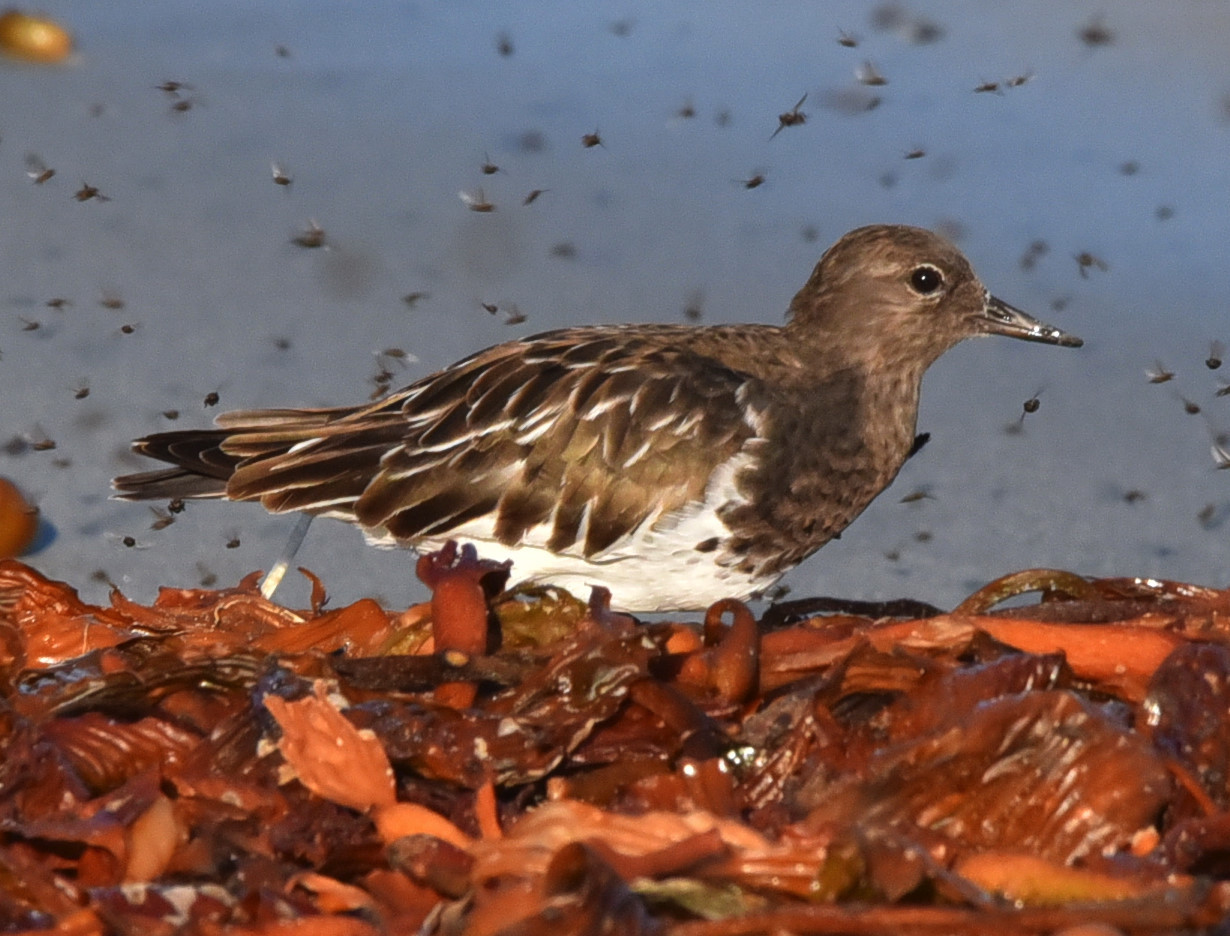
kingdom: Animalia
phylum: Chordata
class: Aves
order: Charadriiformes
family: Scolopacidae
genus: Arenaria
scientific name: Arenaria melanocephala
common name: Black turnstone
